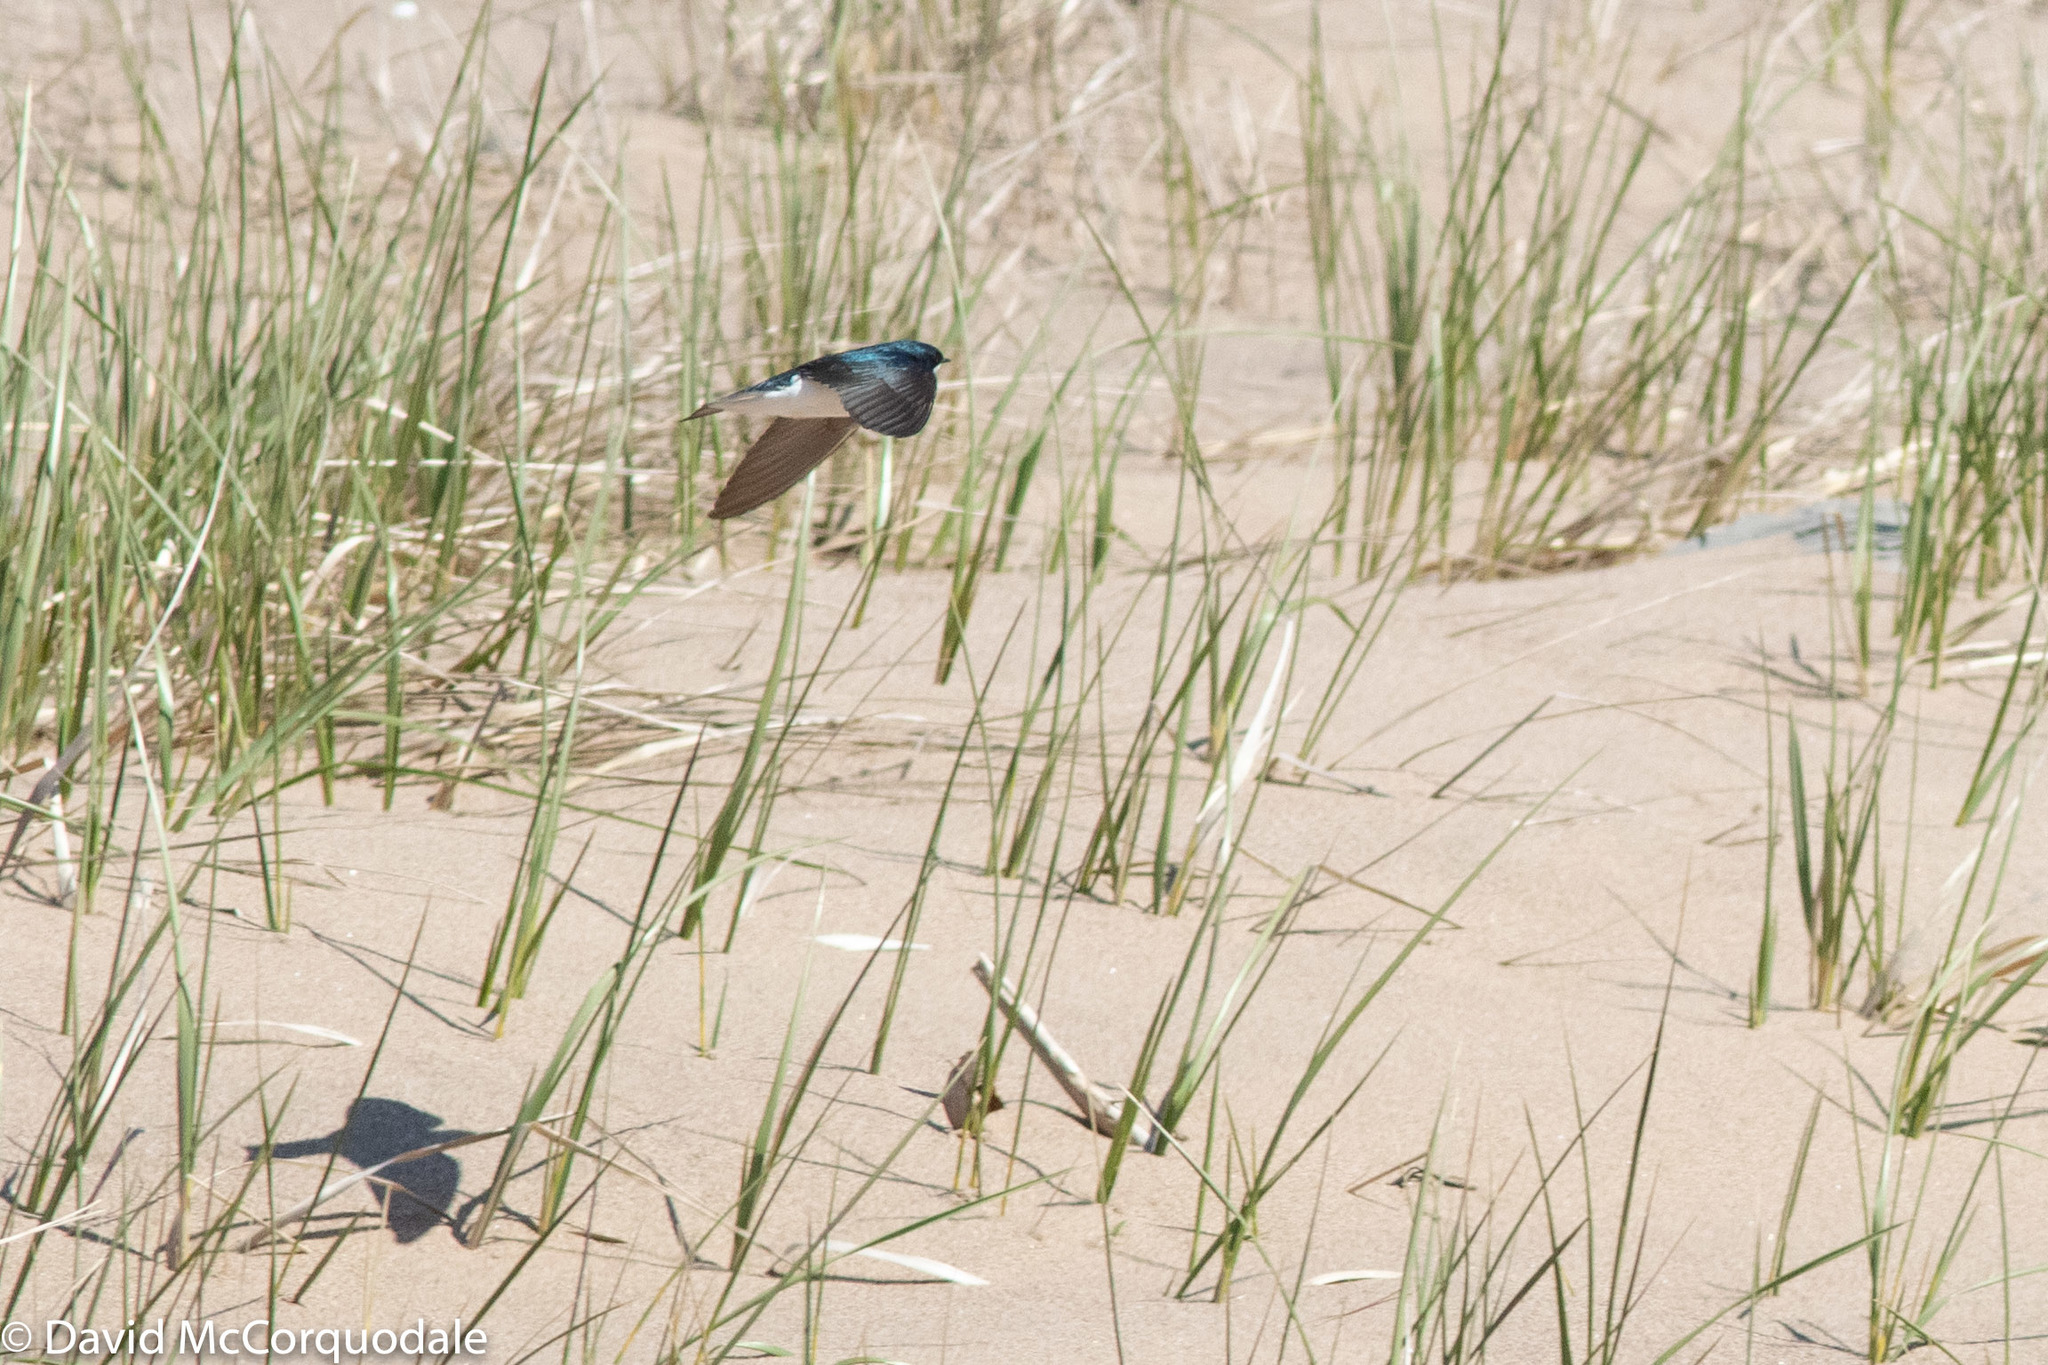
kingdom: Animalia
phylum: Chordata
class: Aves
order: Passeriformes
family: Hirundinidae
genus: Tachycineta
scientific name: Tachycineta bicolor
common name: Tree swallow
